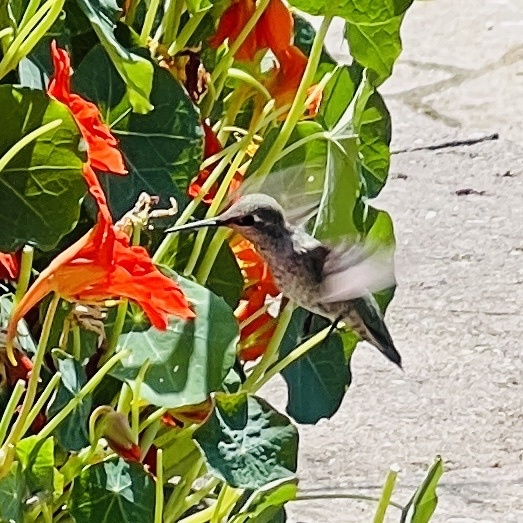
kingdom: Animalia
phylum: Chordata
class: Aves
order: Apodiformes
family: Trochilidae
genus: Calypte
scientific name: Calypte anna
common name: Anna's hummingbird
